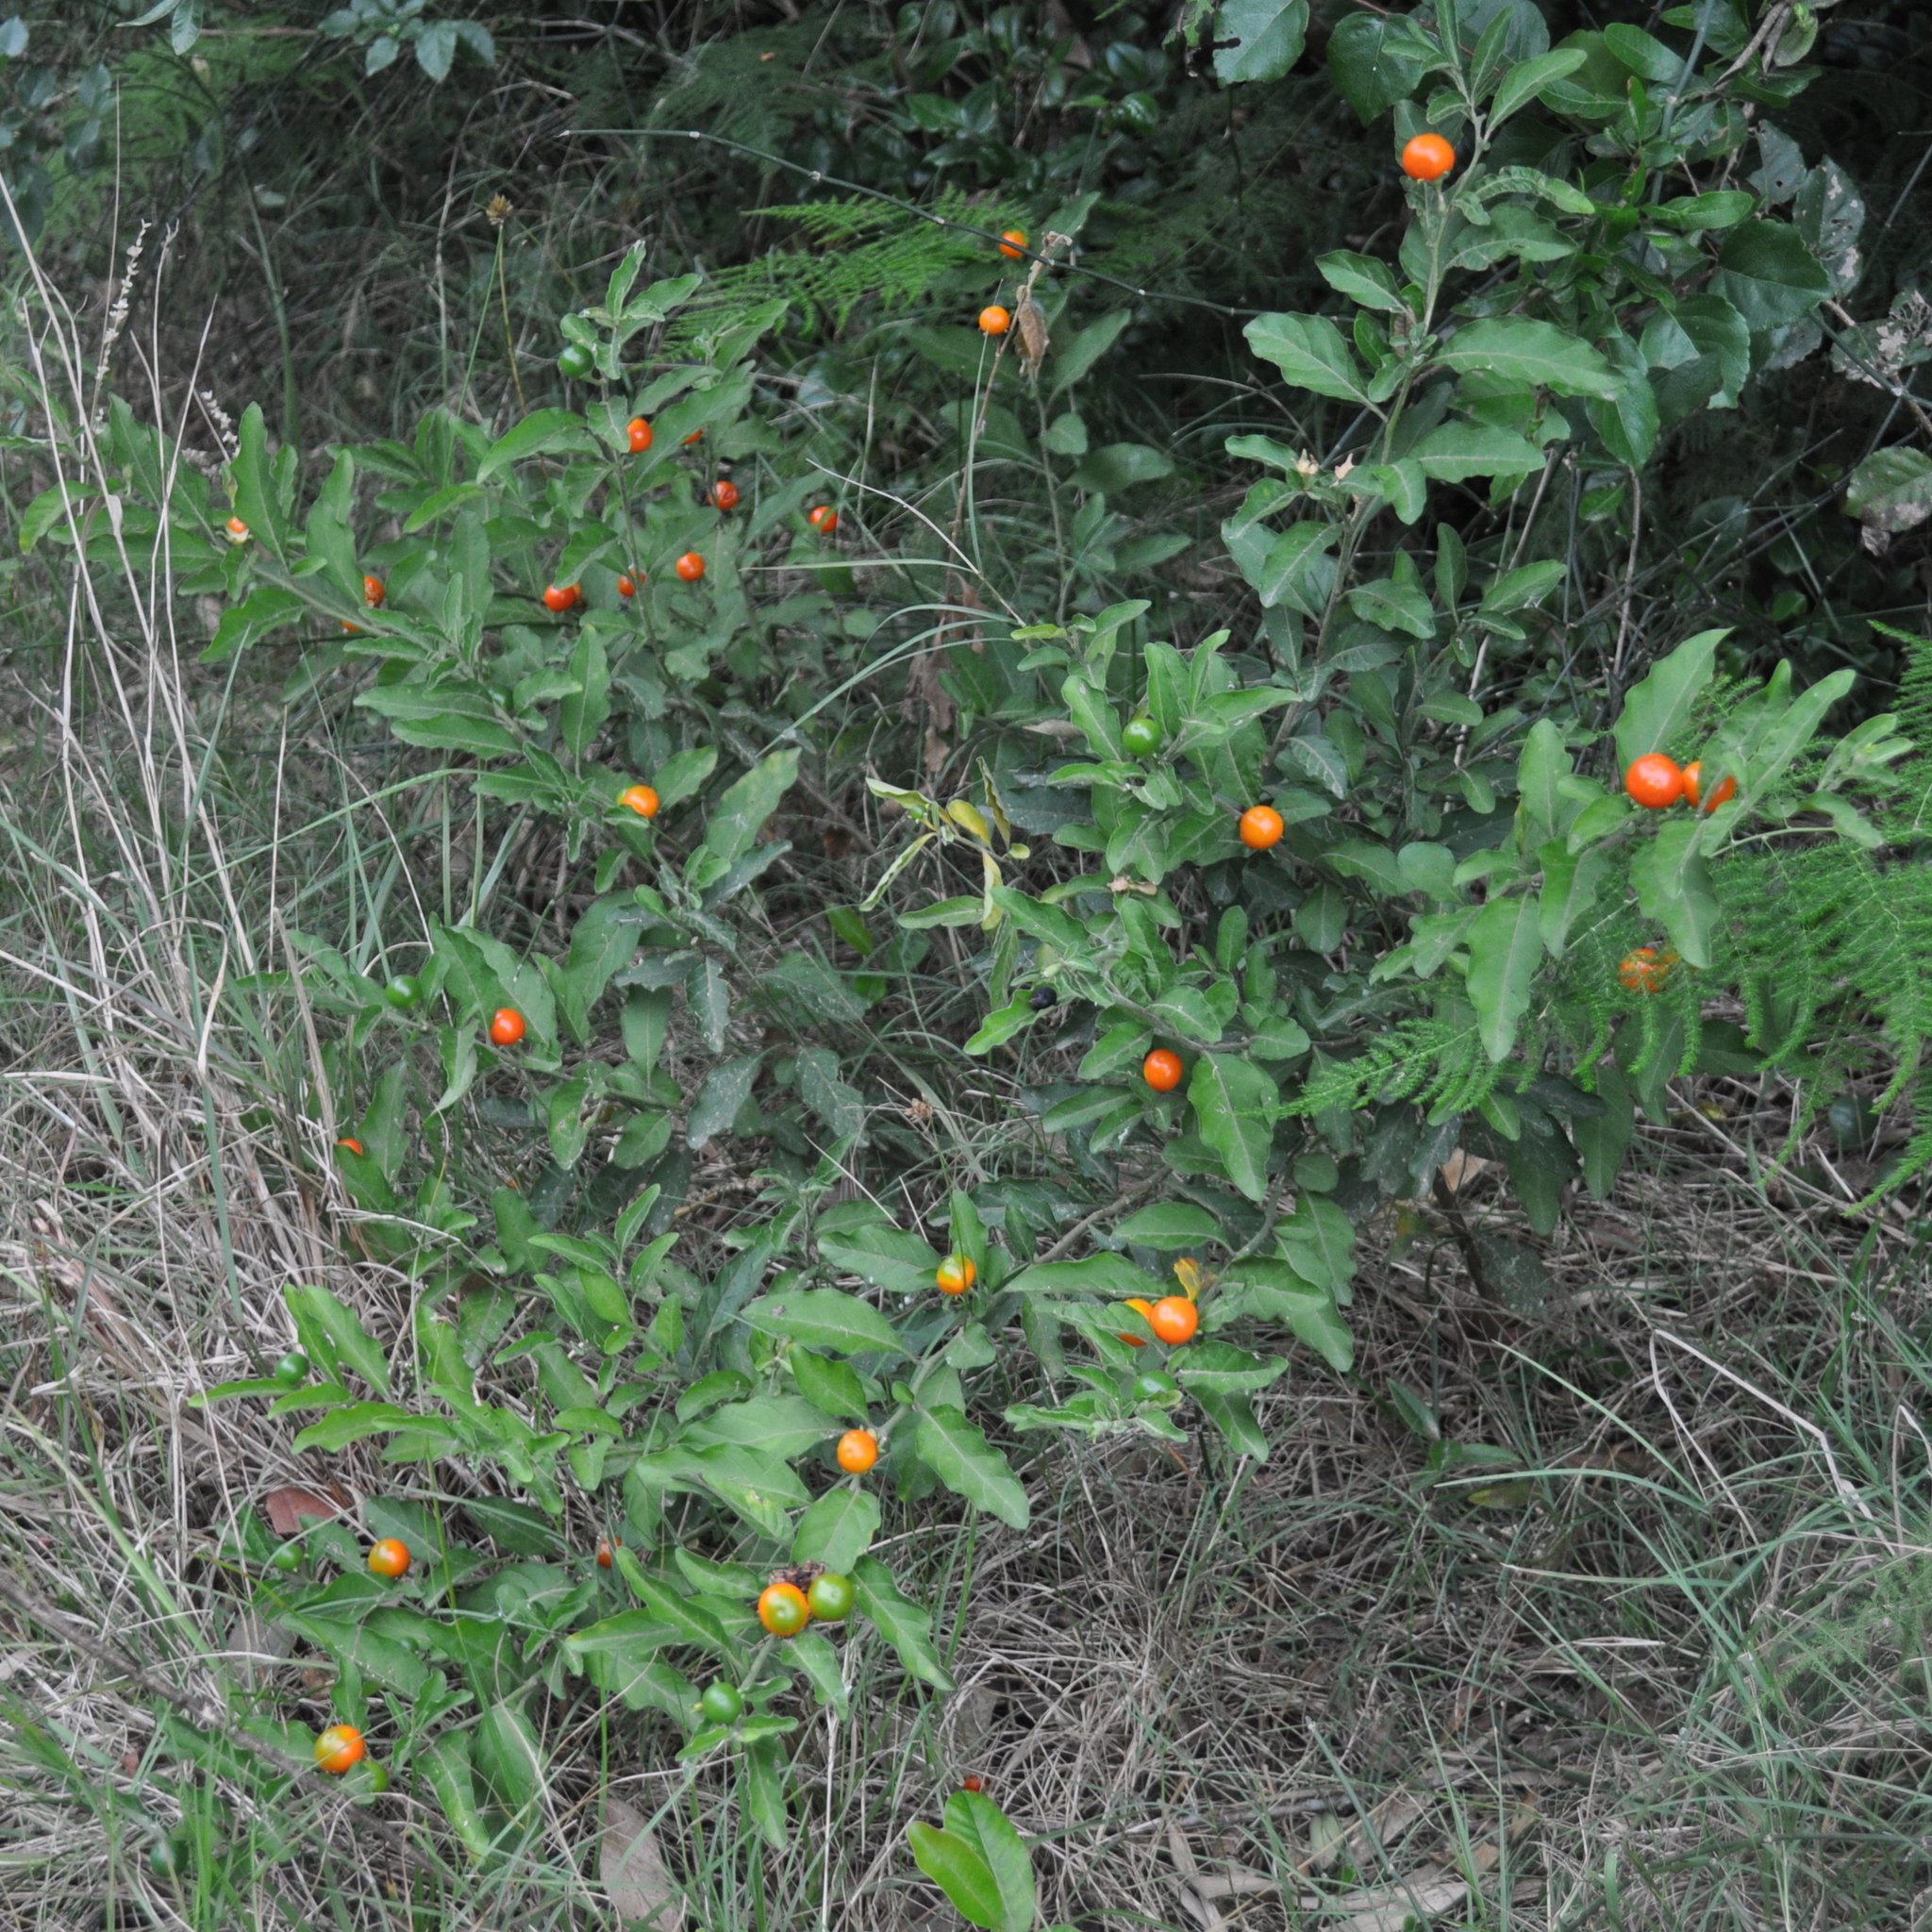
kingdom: Plantae
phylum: Tracheophyta
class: Magnoliopsida
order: Solanales
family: Solanaceae
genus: Solanum
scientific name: Solanum pseudocapsicum
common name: Jerusalem cherry
